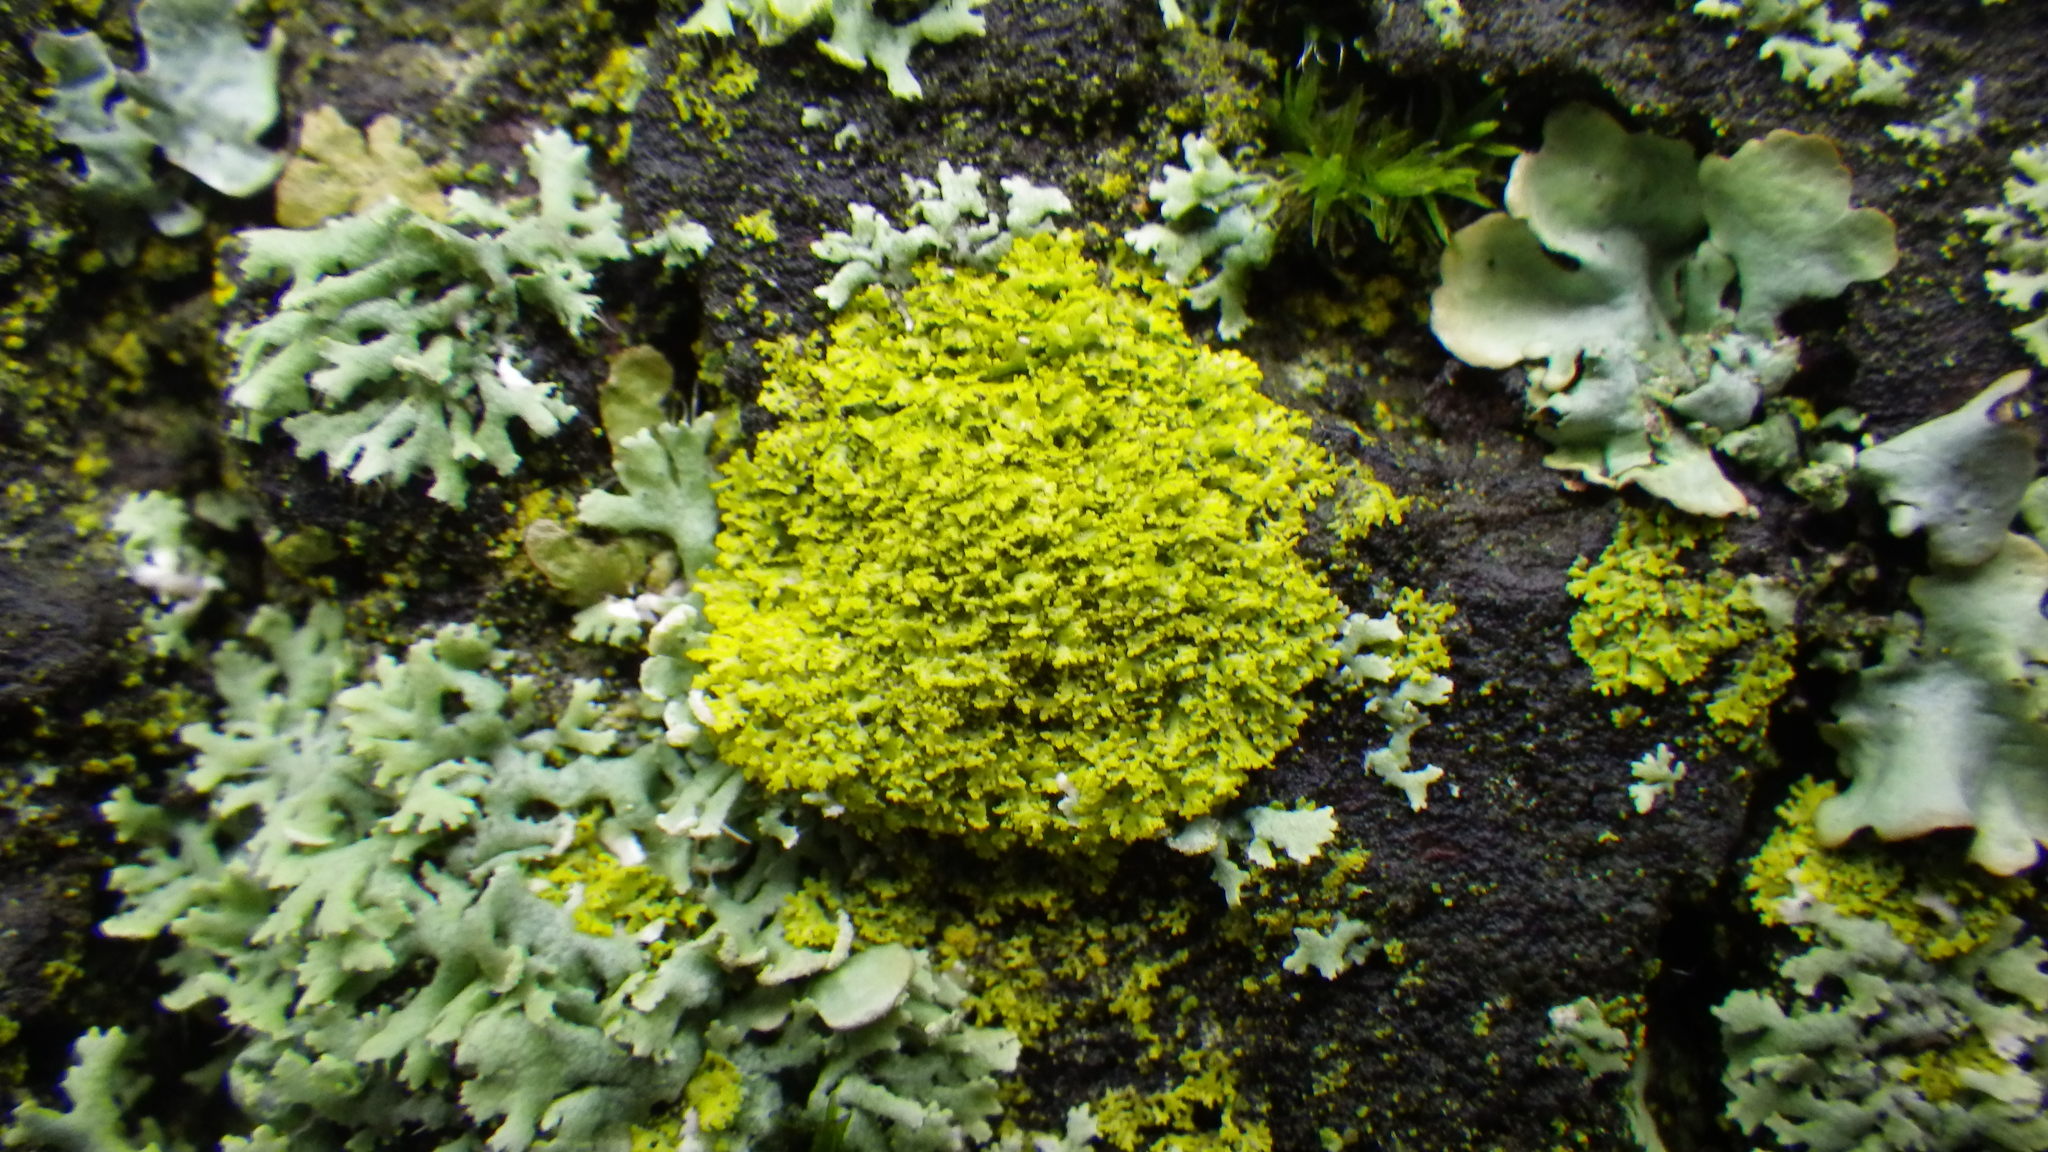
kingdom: Fungi
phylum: Ascomycota
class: Candelariomycetes
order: Candelariales
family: Candelariaceae
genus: Candelaria
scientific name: Candelaria concolor
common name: Candleflame lichen
